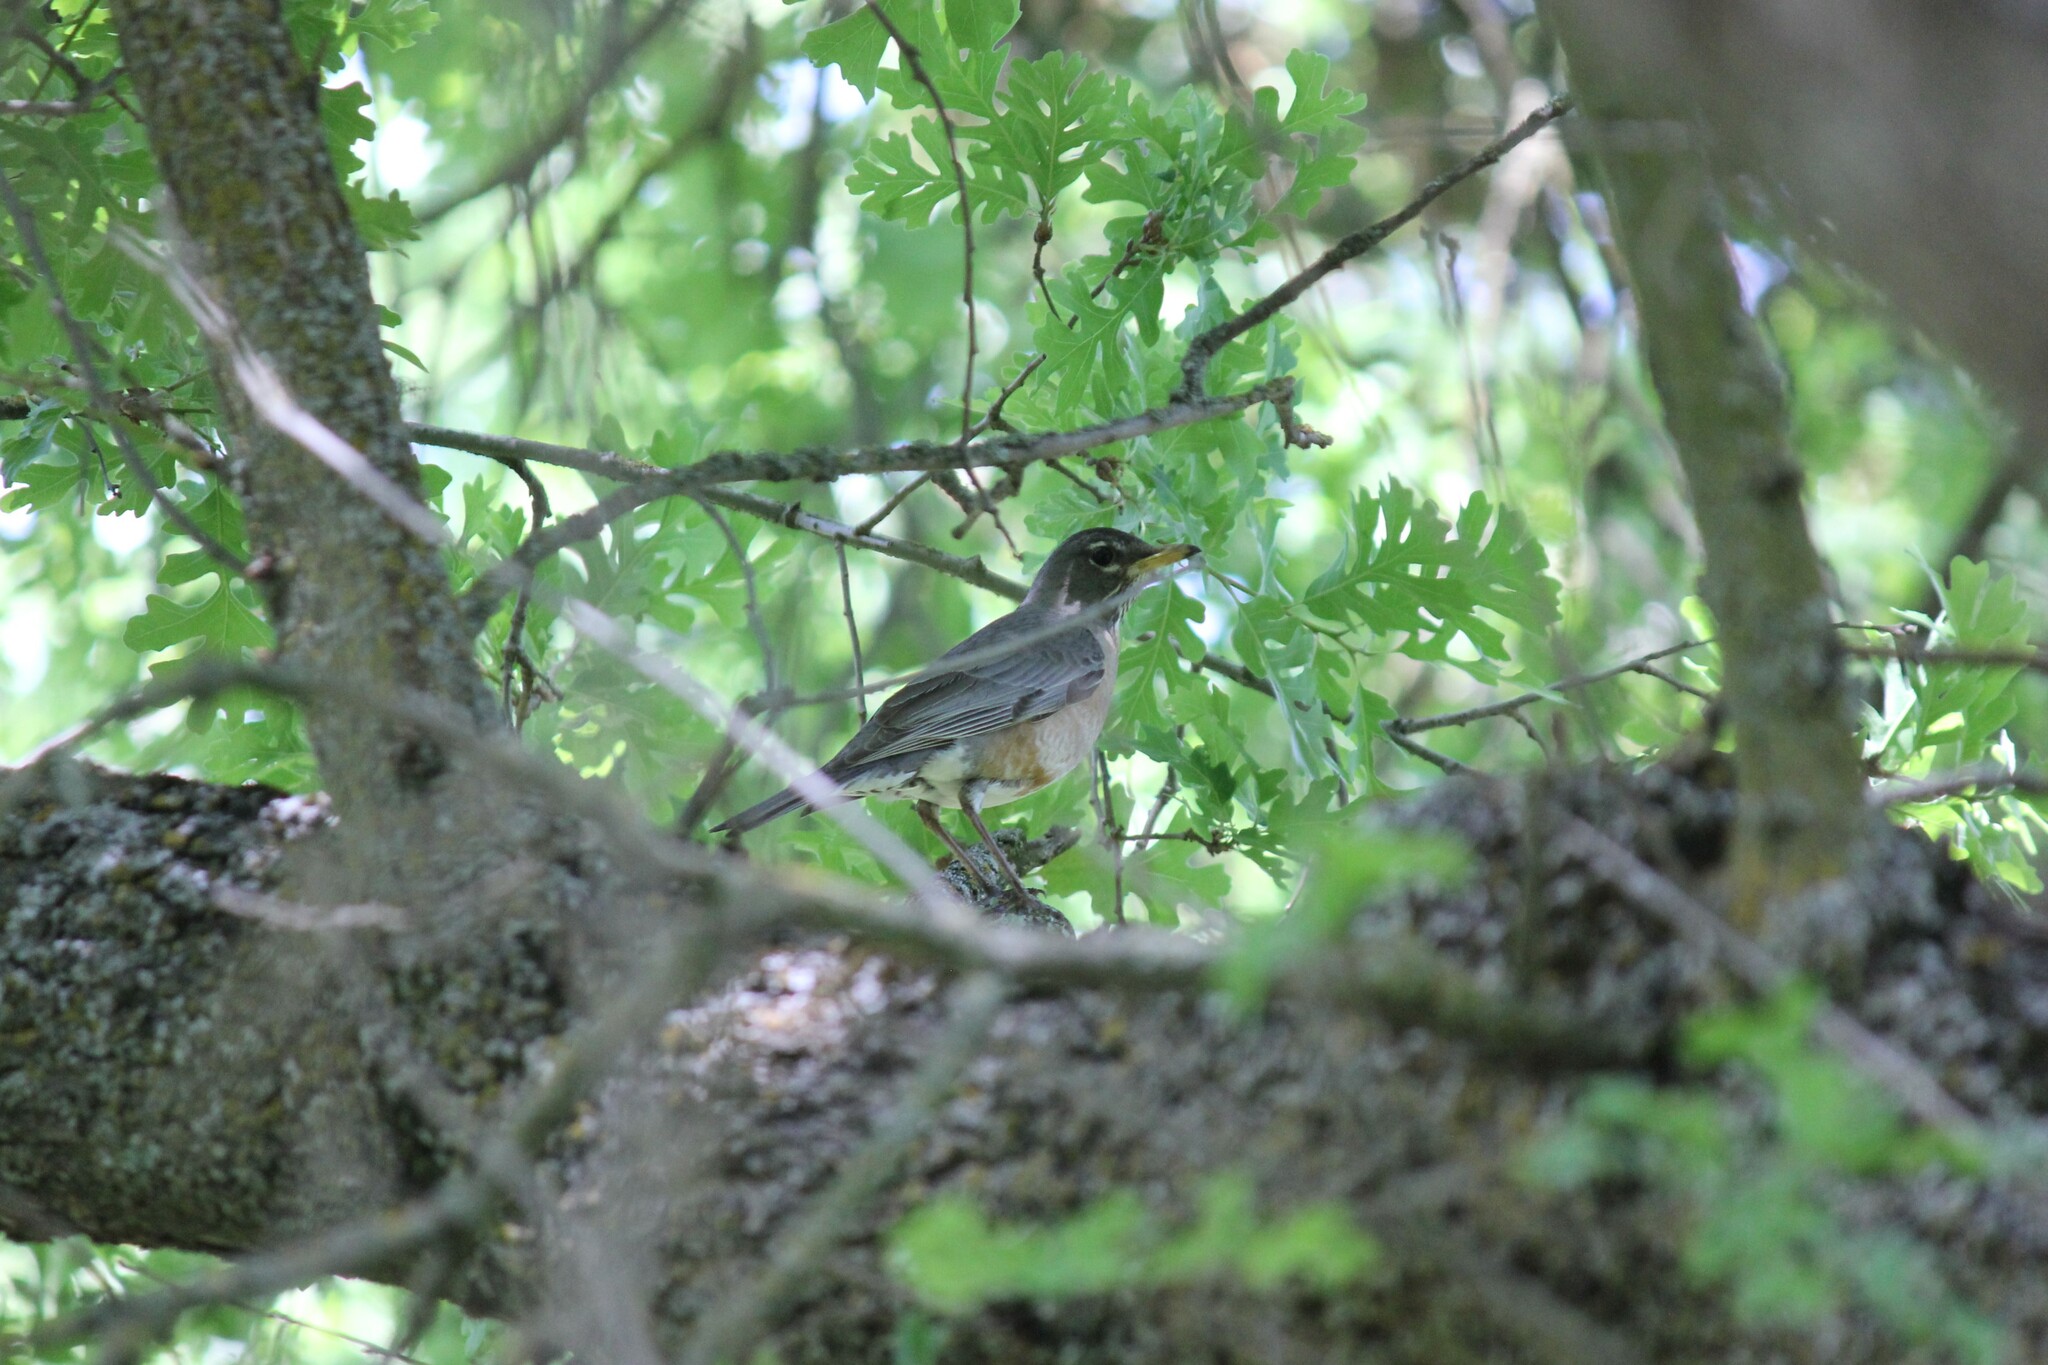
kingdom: Animalia
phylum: Chordata
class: Aves
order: Passeriformes
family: Turdidae
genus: Turdus
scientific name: Turdus migratorius
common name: American robin
